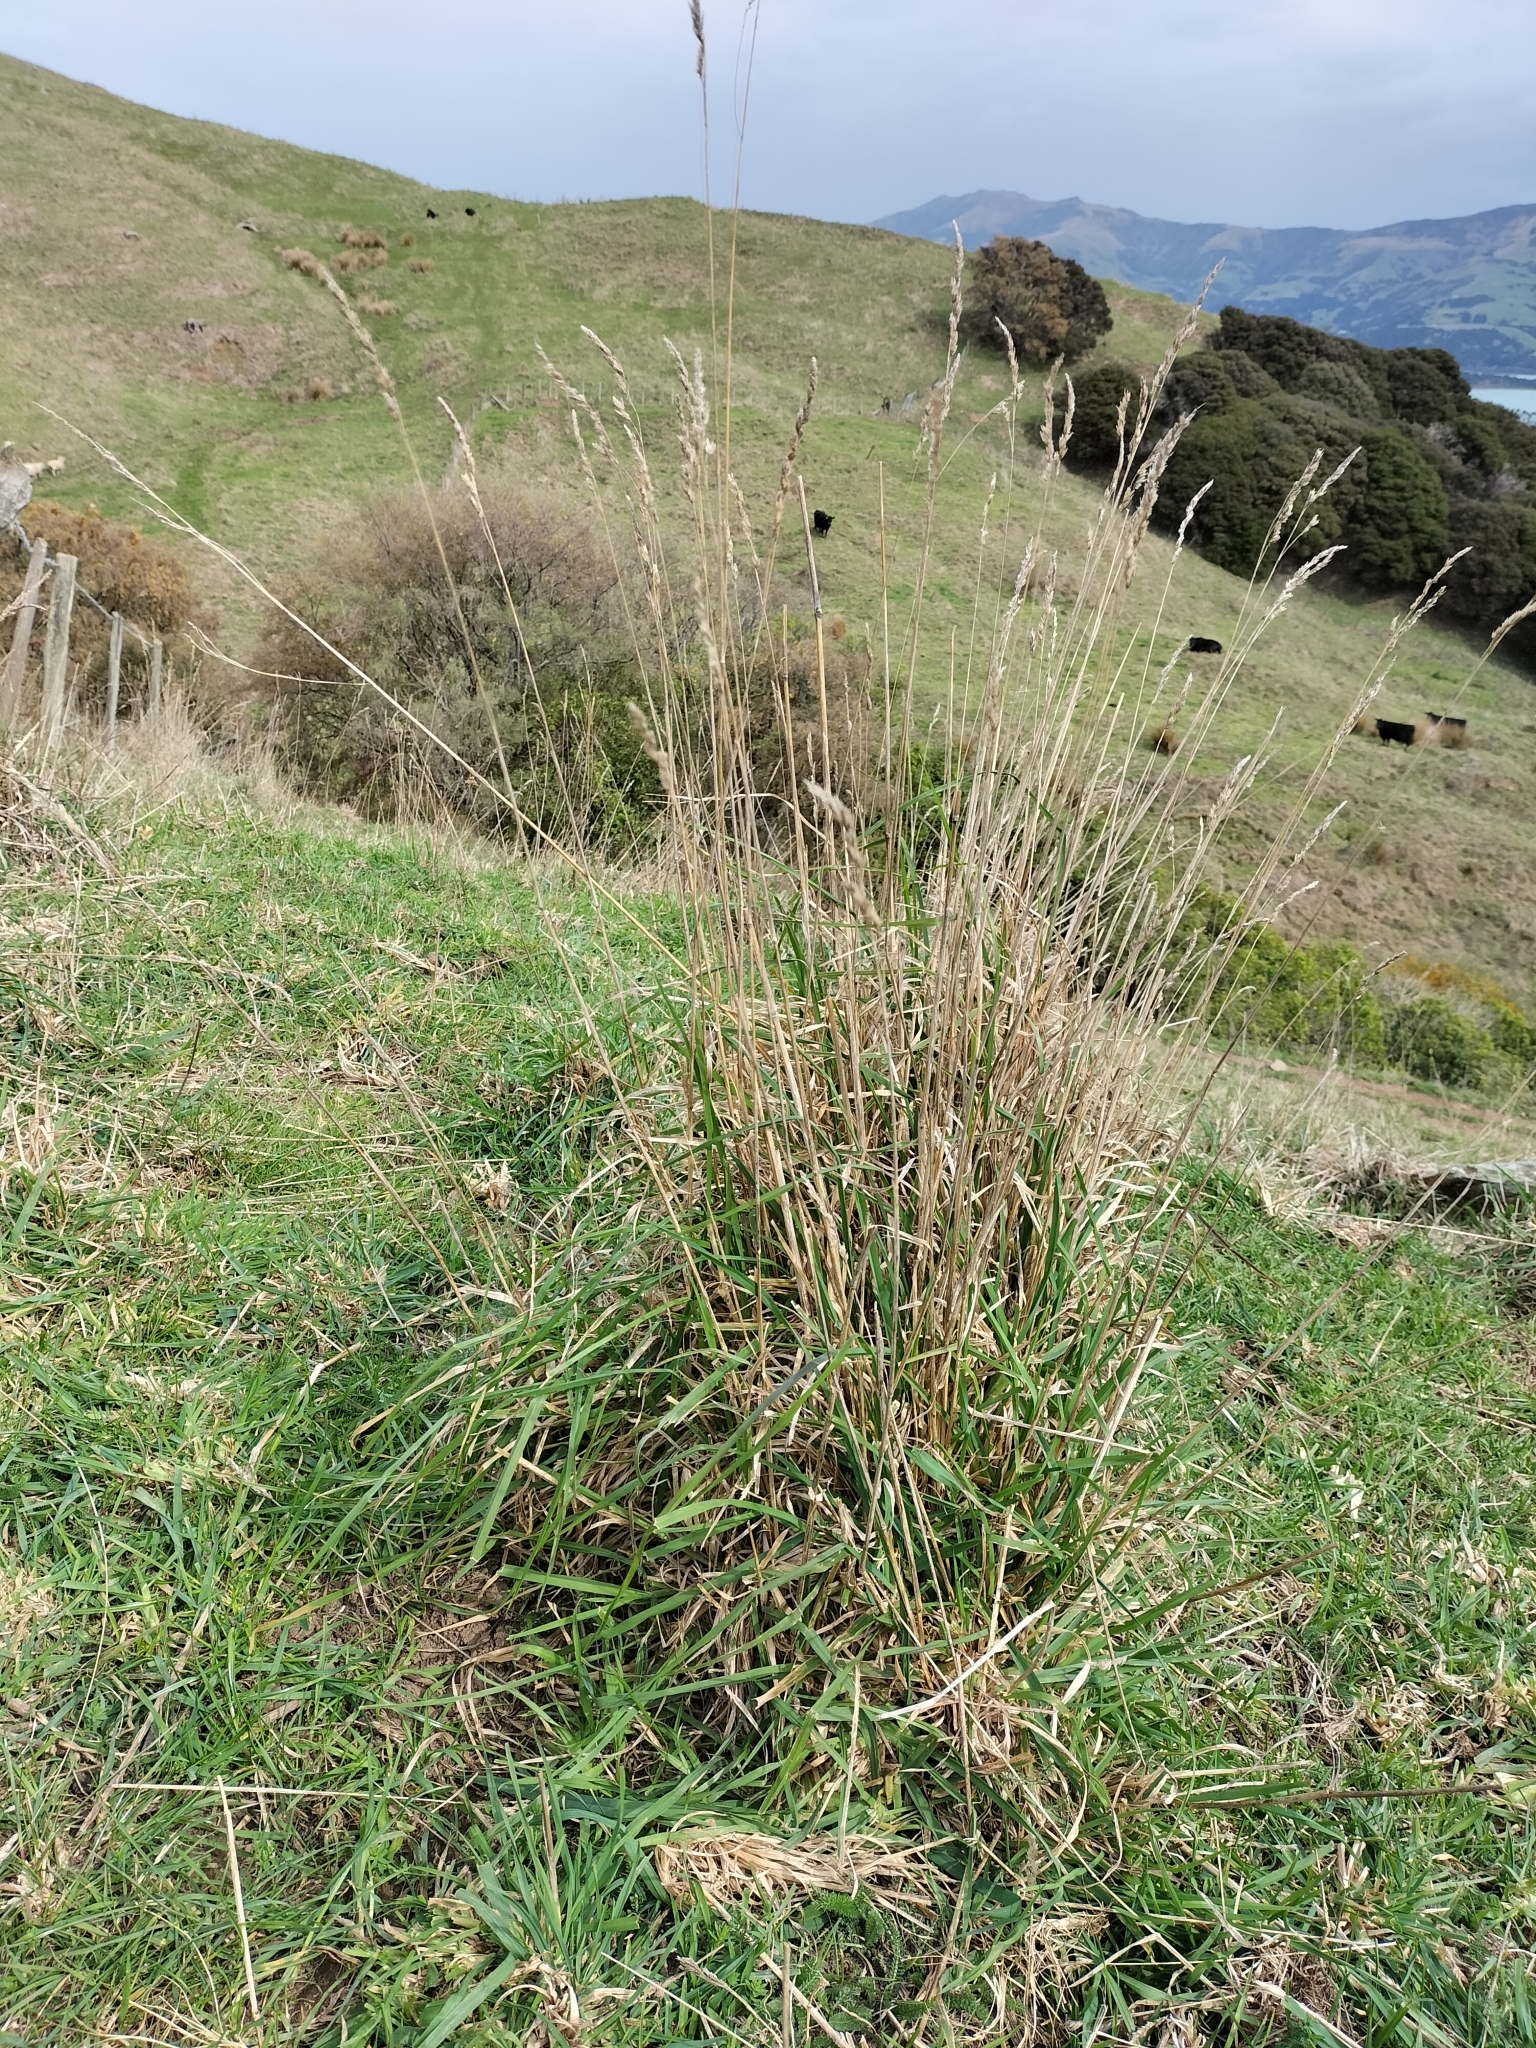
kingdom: Plantae
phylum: Tracheophyta
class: Liliopsida
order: Poales
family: Poaceae
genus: Dactylis
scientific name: Dactylis glomerata
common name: Orchardgrass
